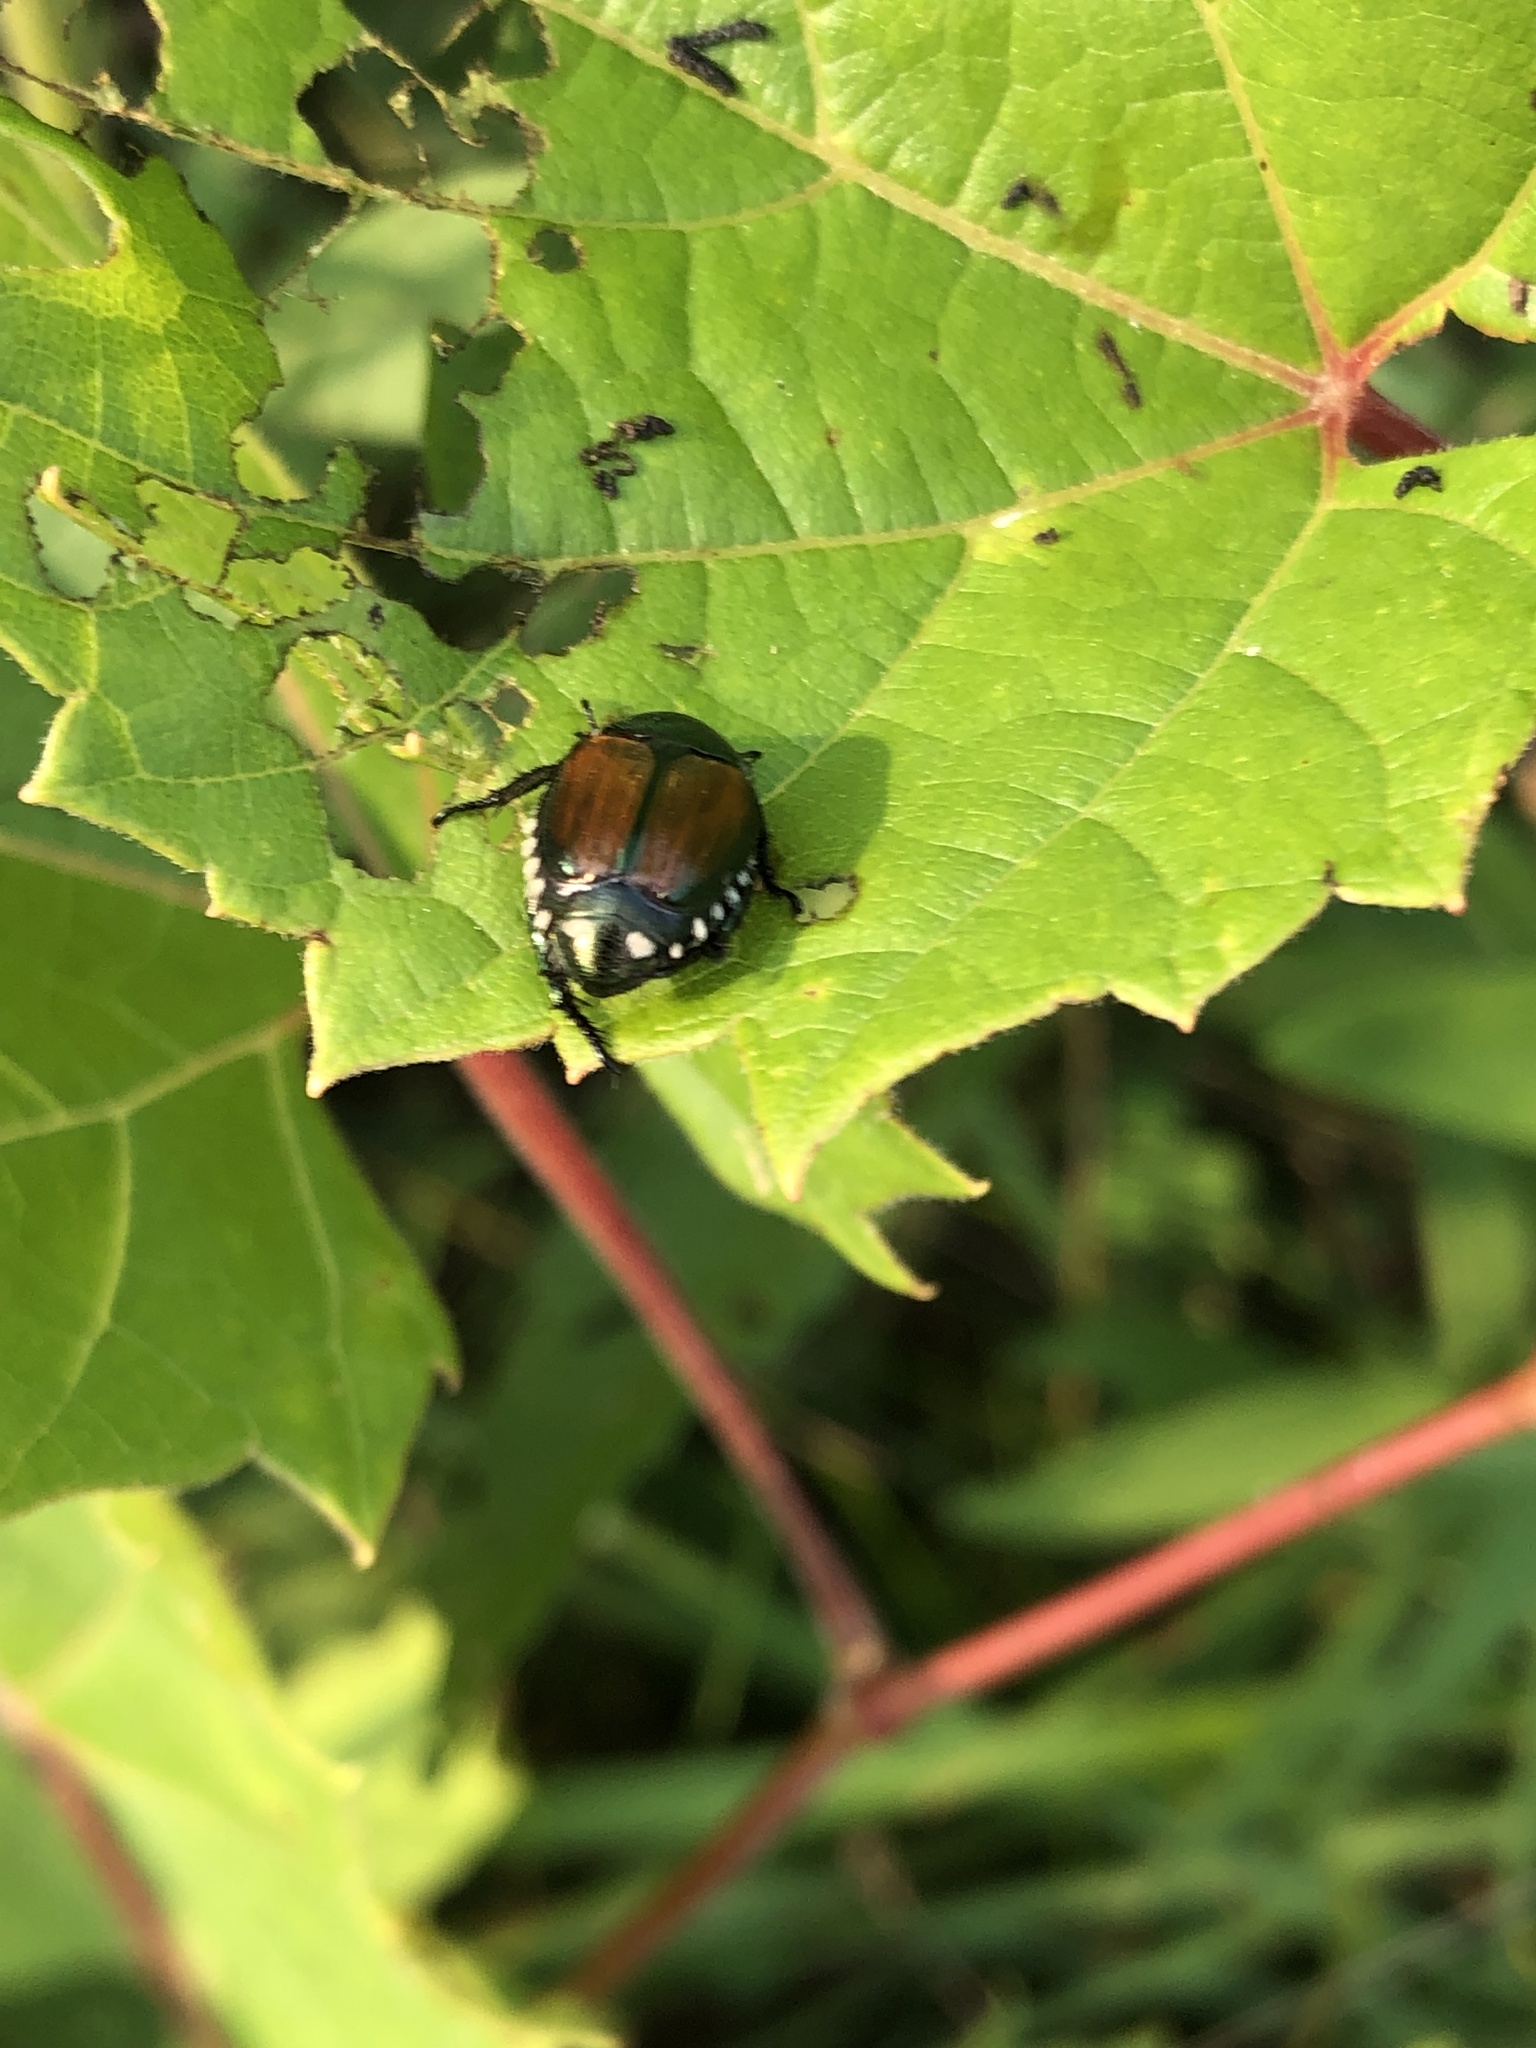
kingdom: Animalia
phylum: Arthropoda
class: Insecta
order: Coleoptera
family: Scarabaeidae
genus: Popillia
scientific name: Popillia japonica
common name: Japanese beetle
